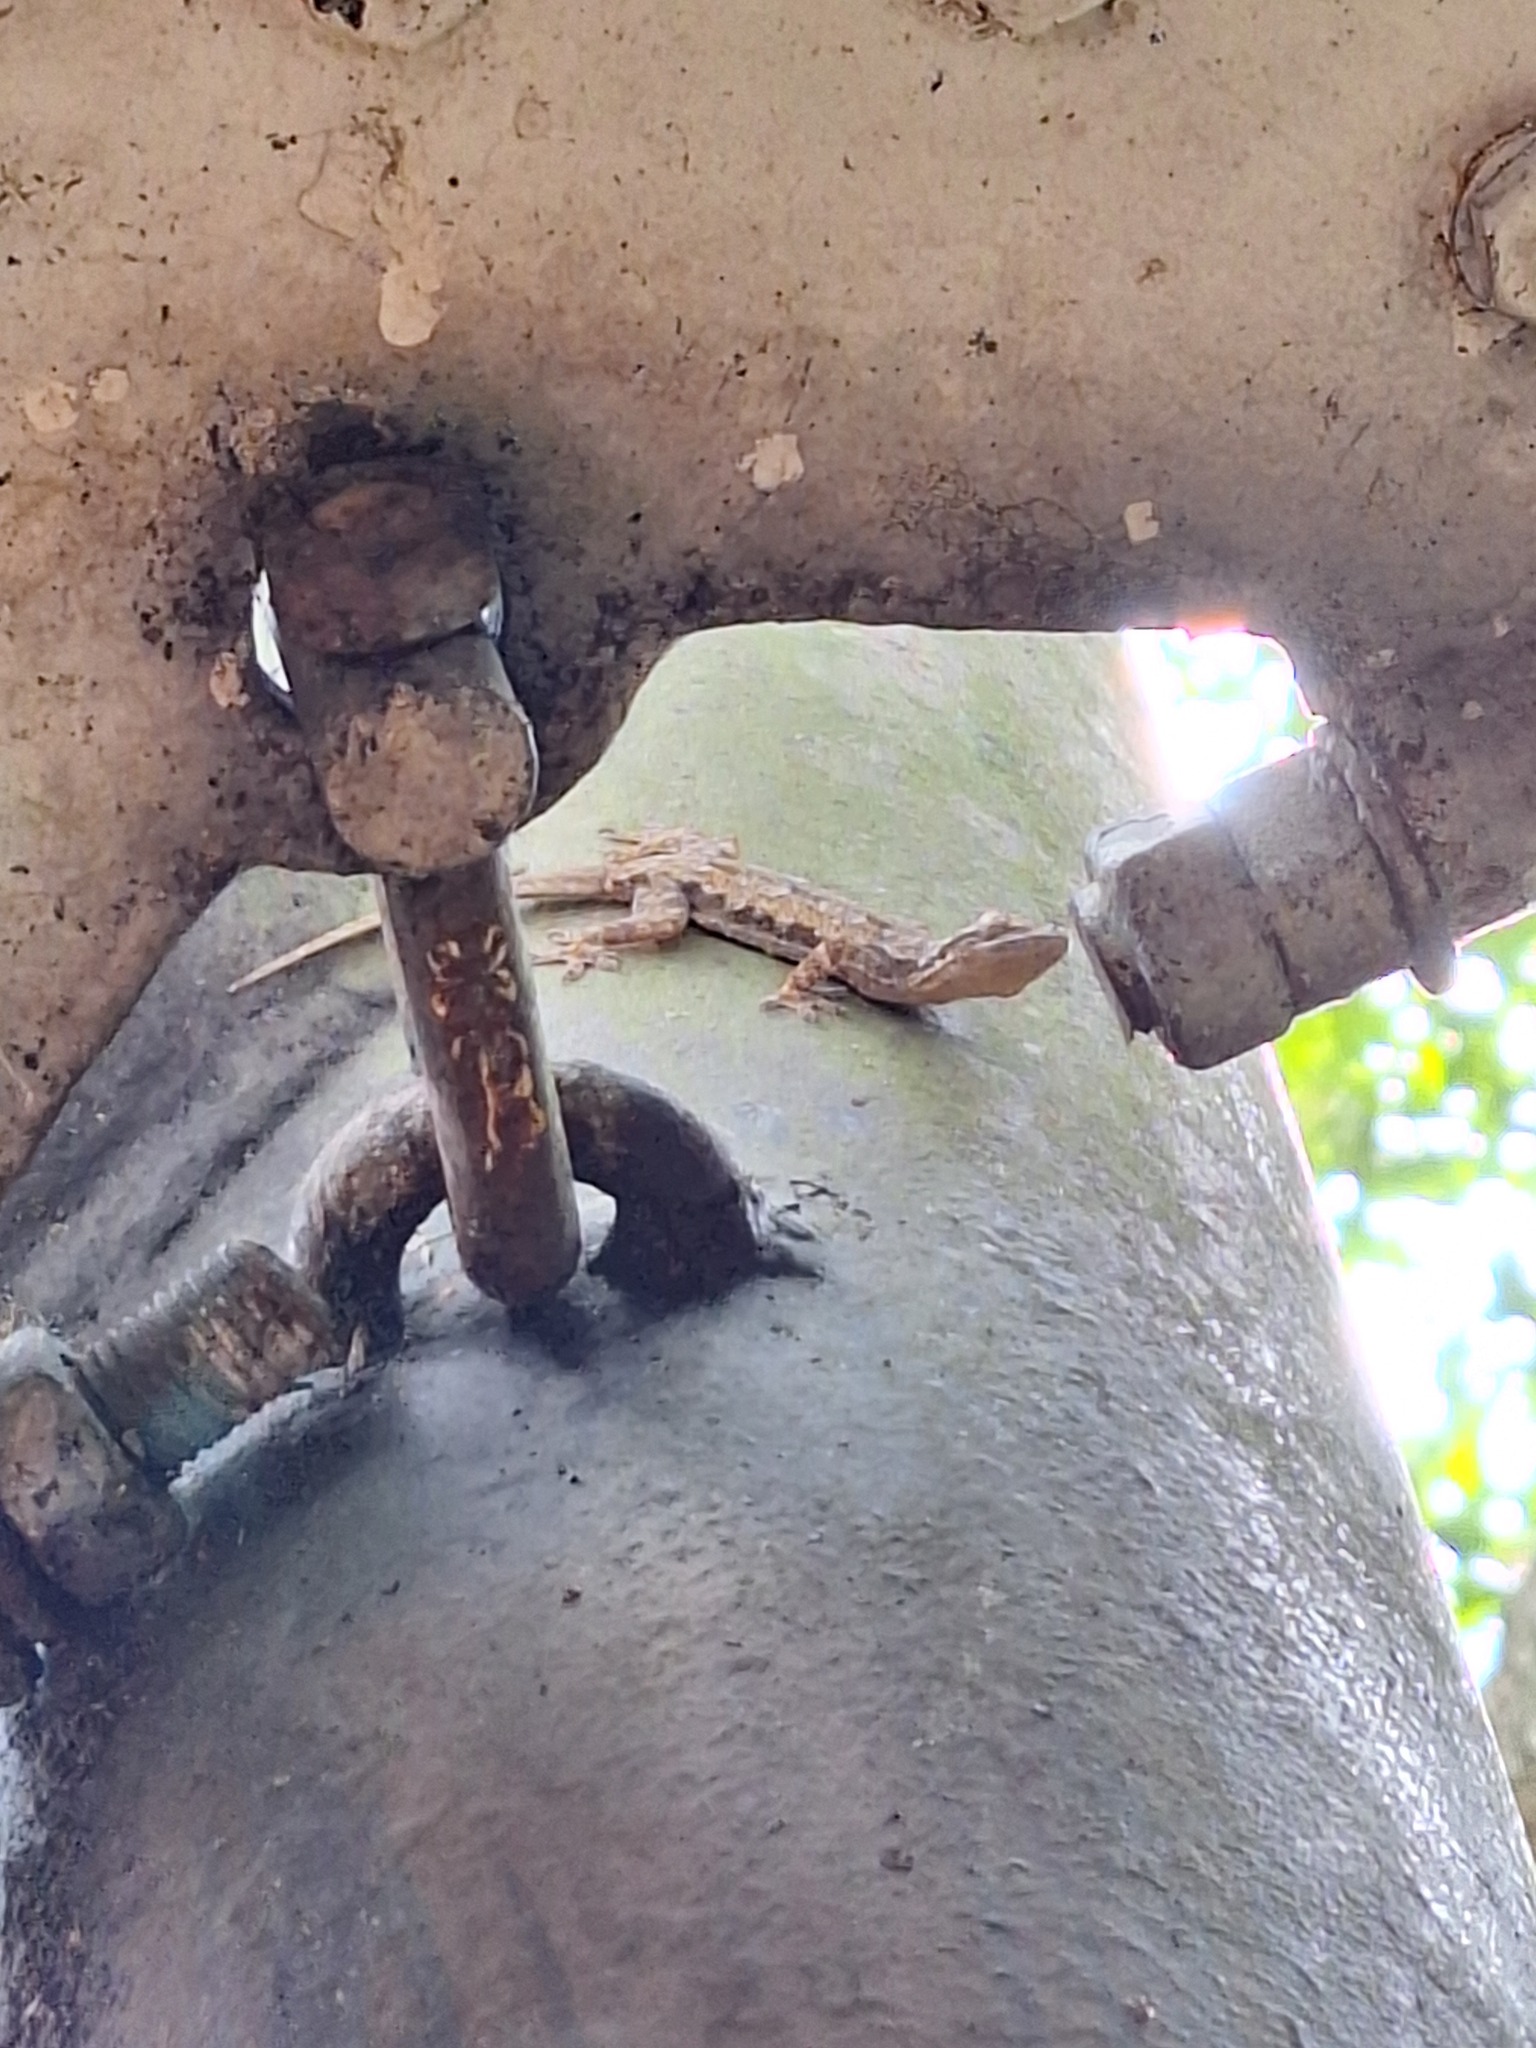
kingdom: Animalia
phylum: Chordata
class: Squamata
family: Gekkonidae
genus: Hemidactylus
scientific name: Hemidactylus platyurus
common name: Flat-tailed house gecko
